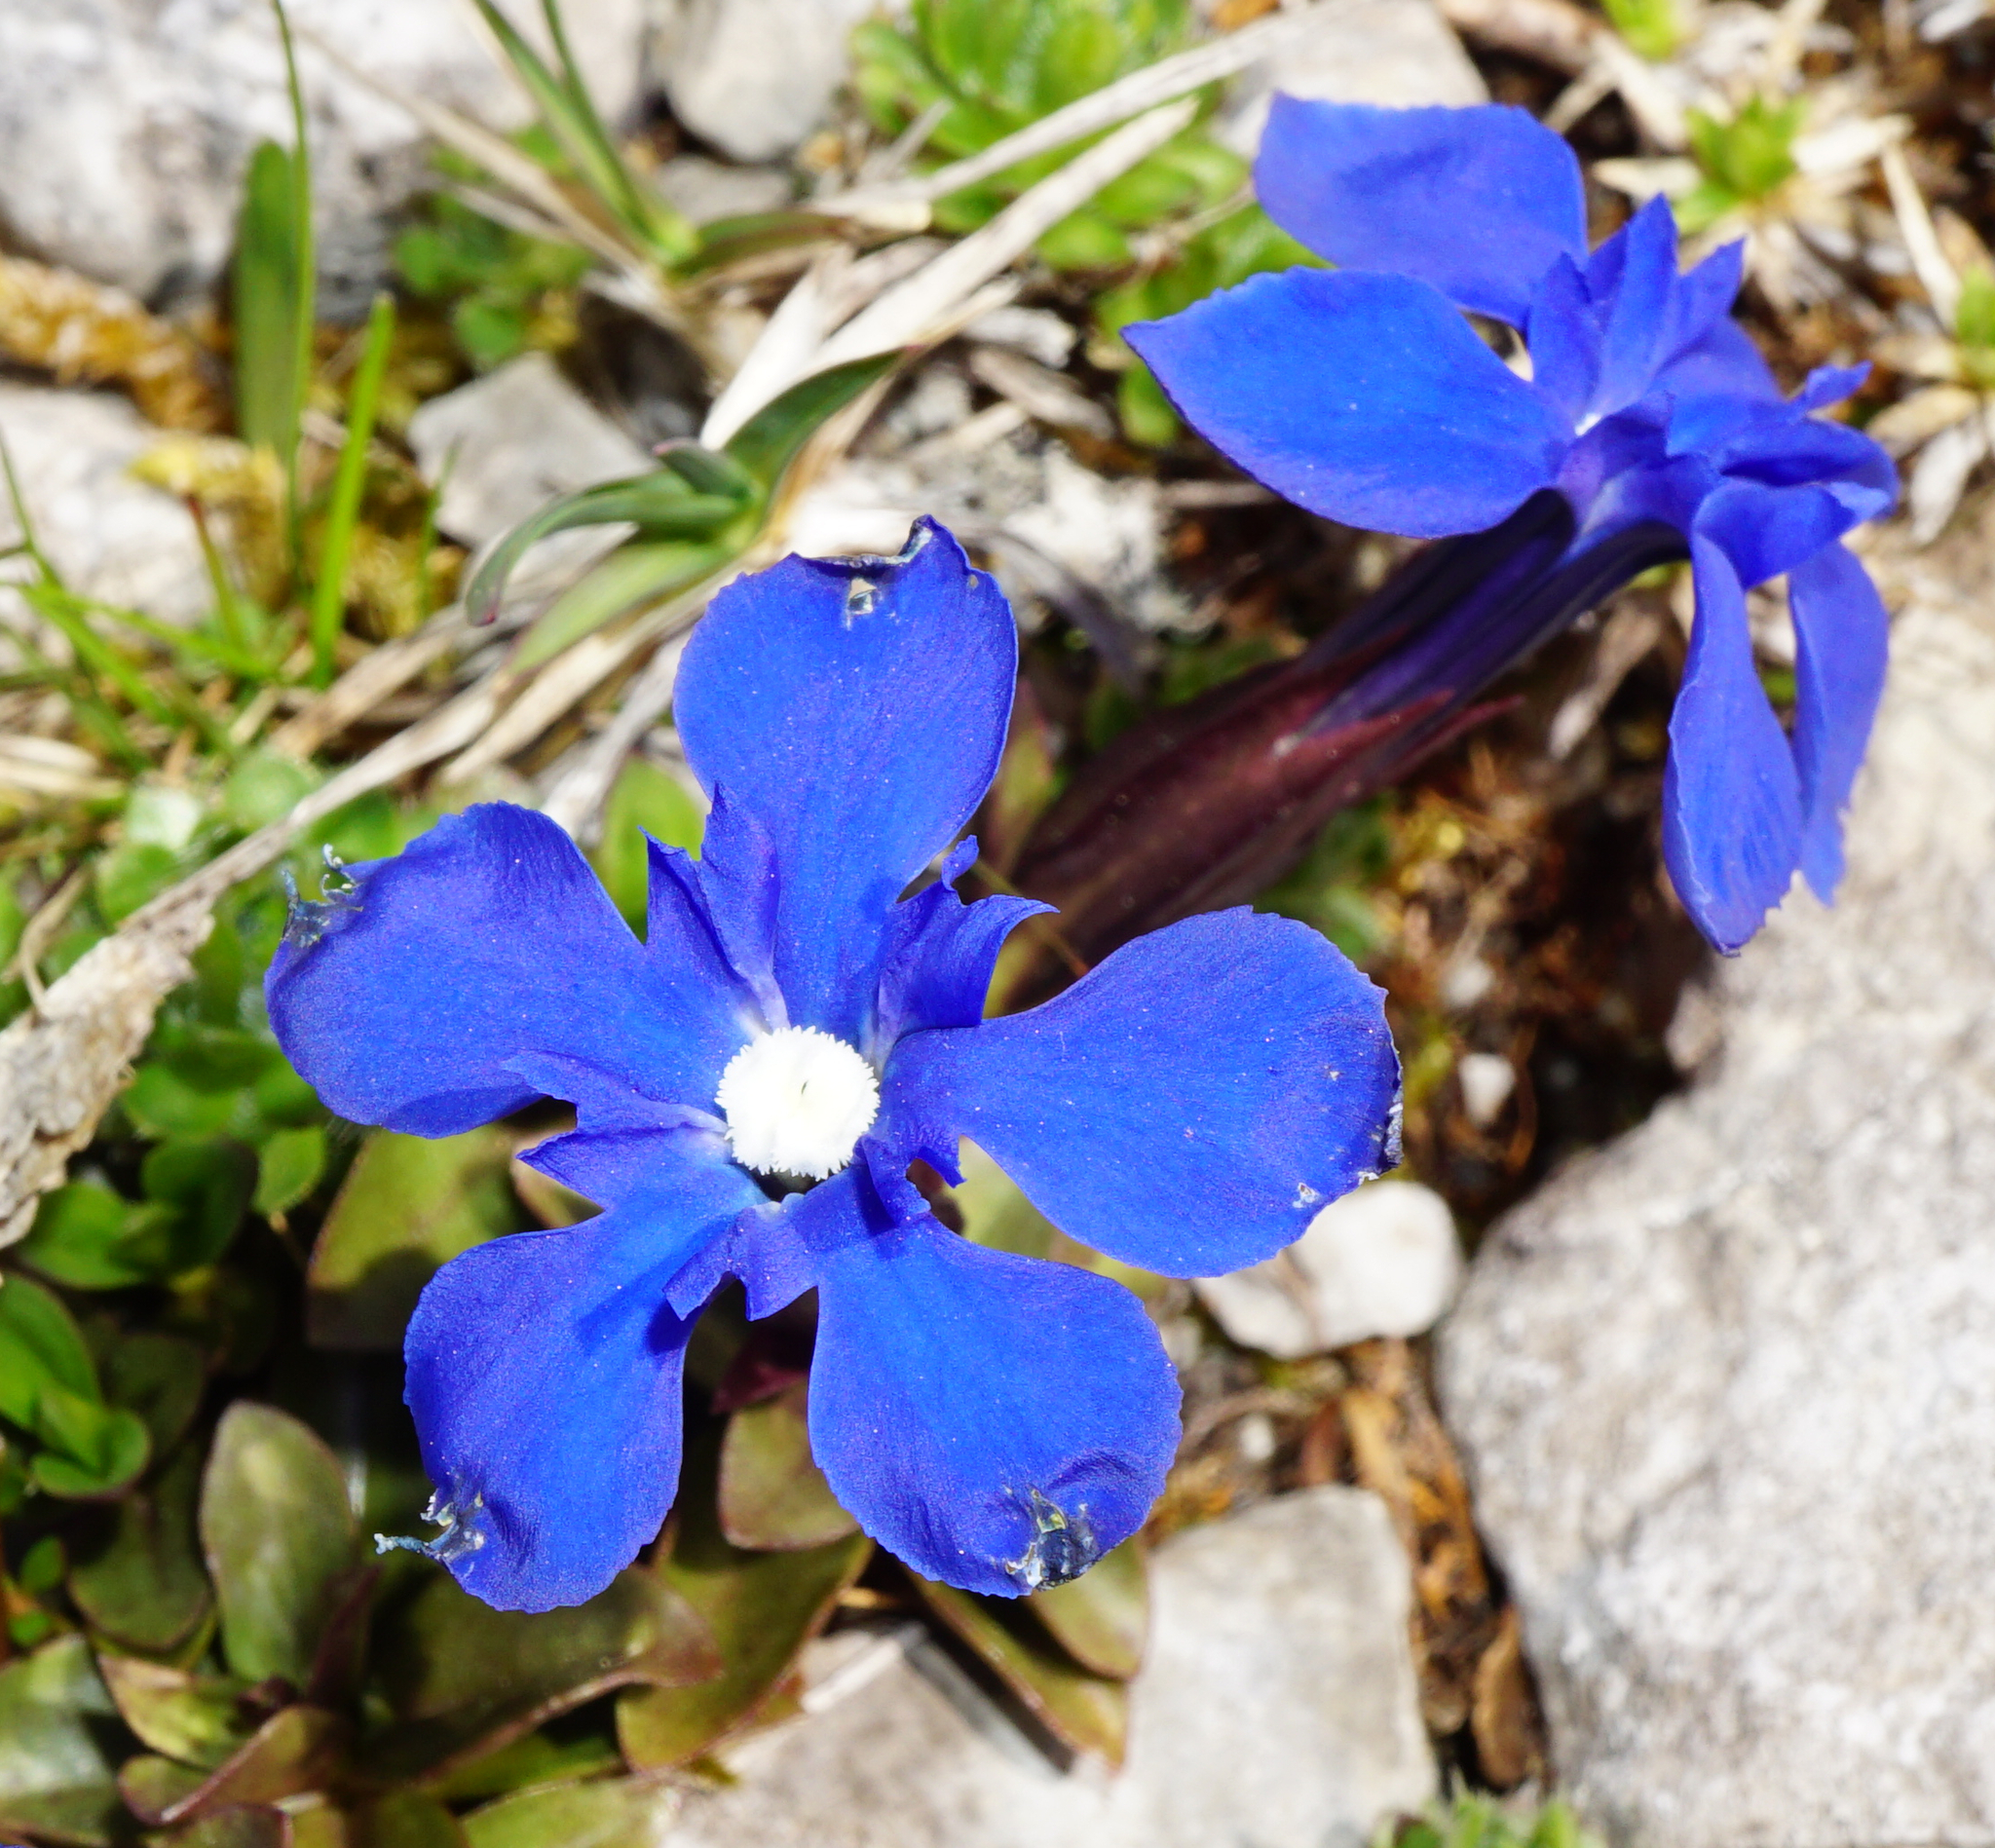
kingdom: Plantae
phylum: Tracheophyta
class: Magnoliopsida
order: Gentianales
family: Gentianaceae
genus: Gentiana
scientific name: Gentiana verna
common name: Spring gentian
